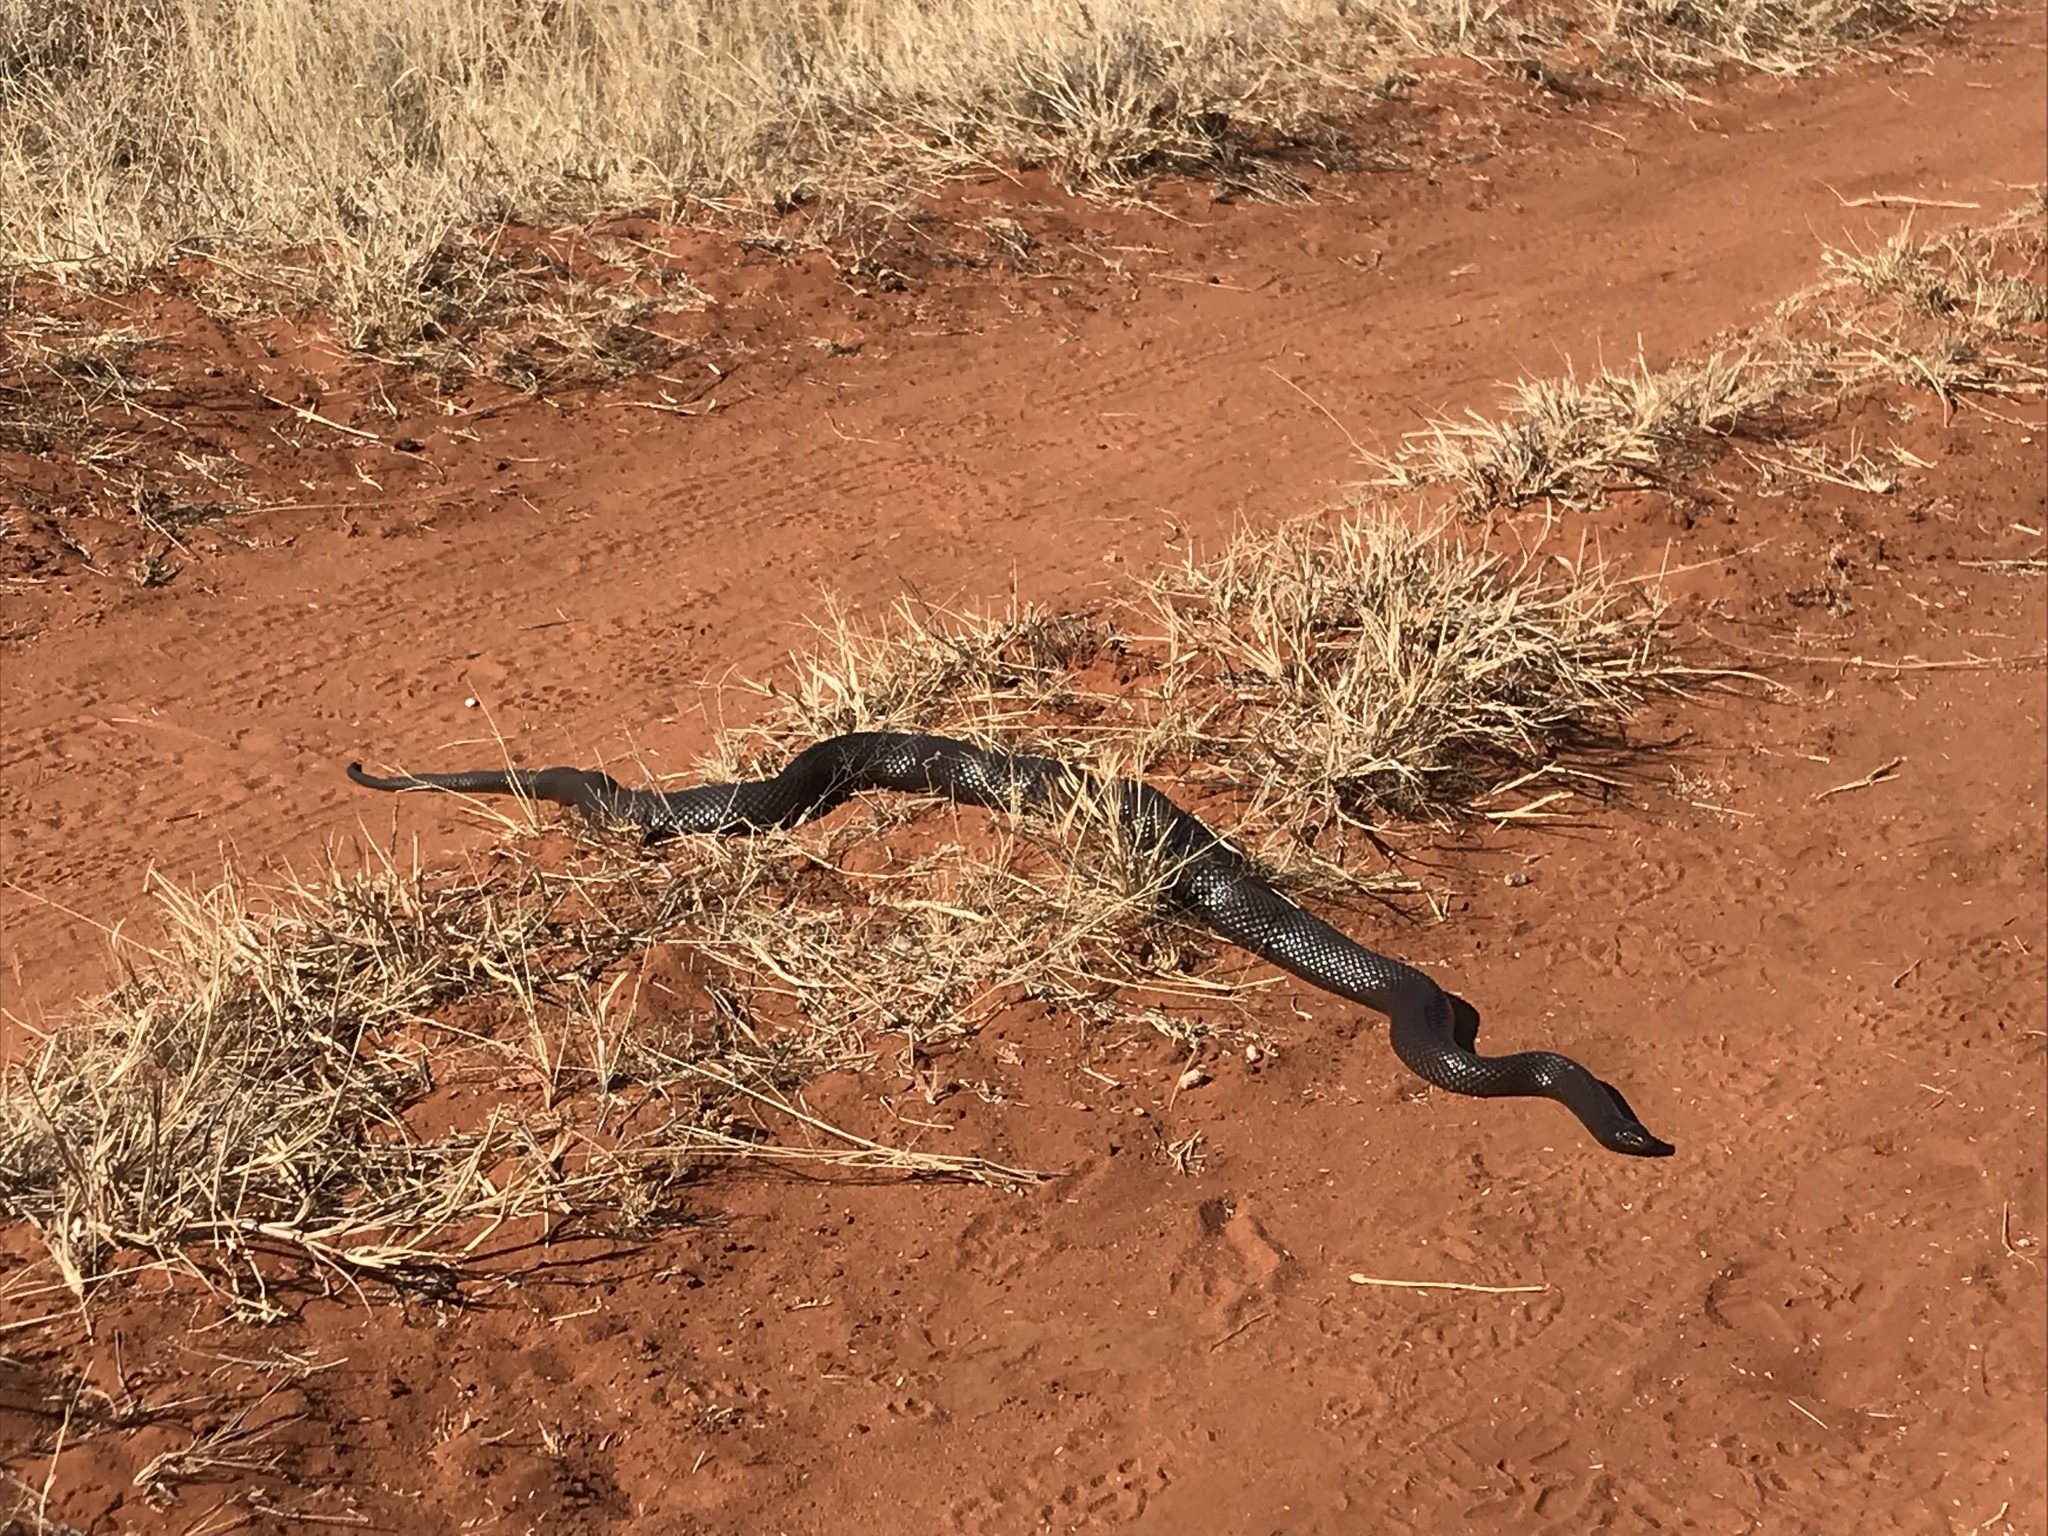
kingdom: Animalia
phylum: Chordata
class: Squamata
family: Pseudaspididae
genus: Pseudaspis
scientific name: Pseudaspis cana
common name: Mole snake
